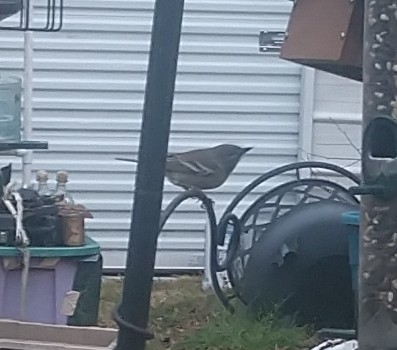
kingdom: Animalia
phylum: Chordata
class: Aves
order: Passeriformes
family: Parulidae
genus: Setophaga
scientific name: Setophaga pinus
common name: Pine warbler
